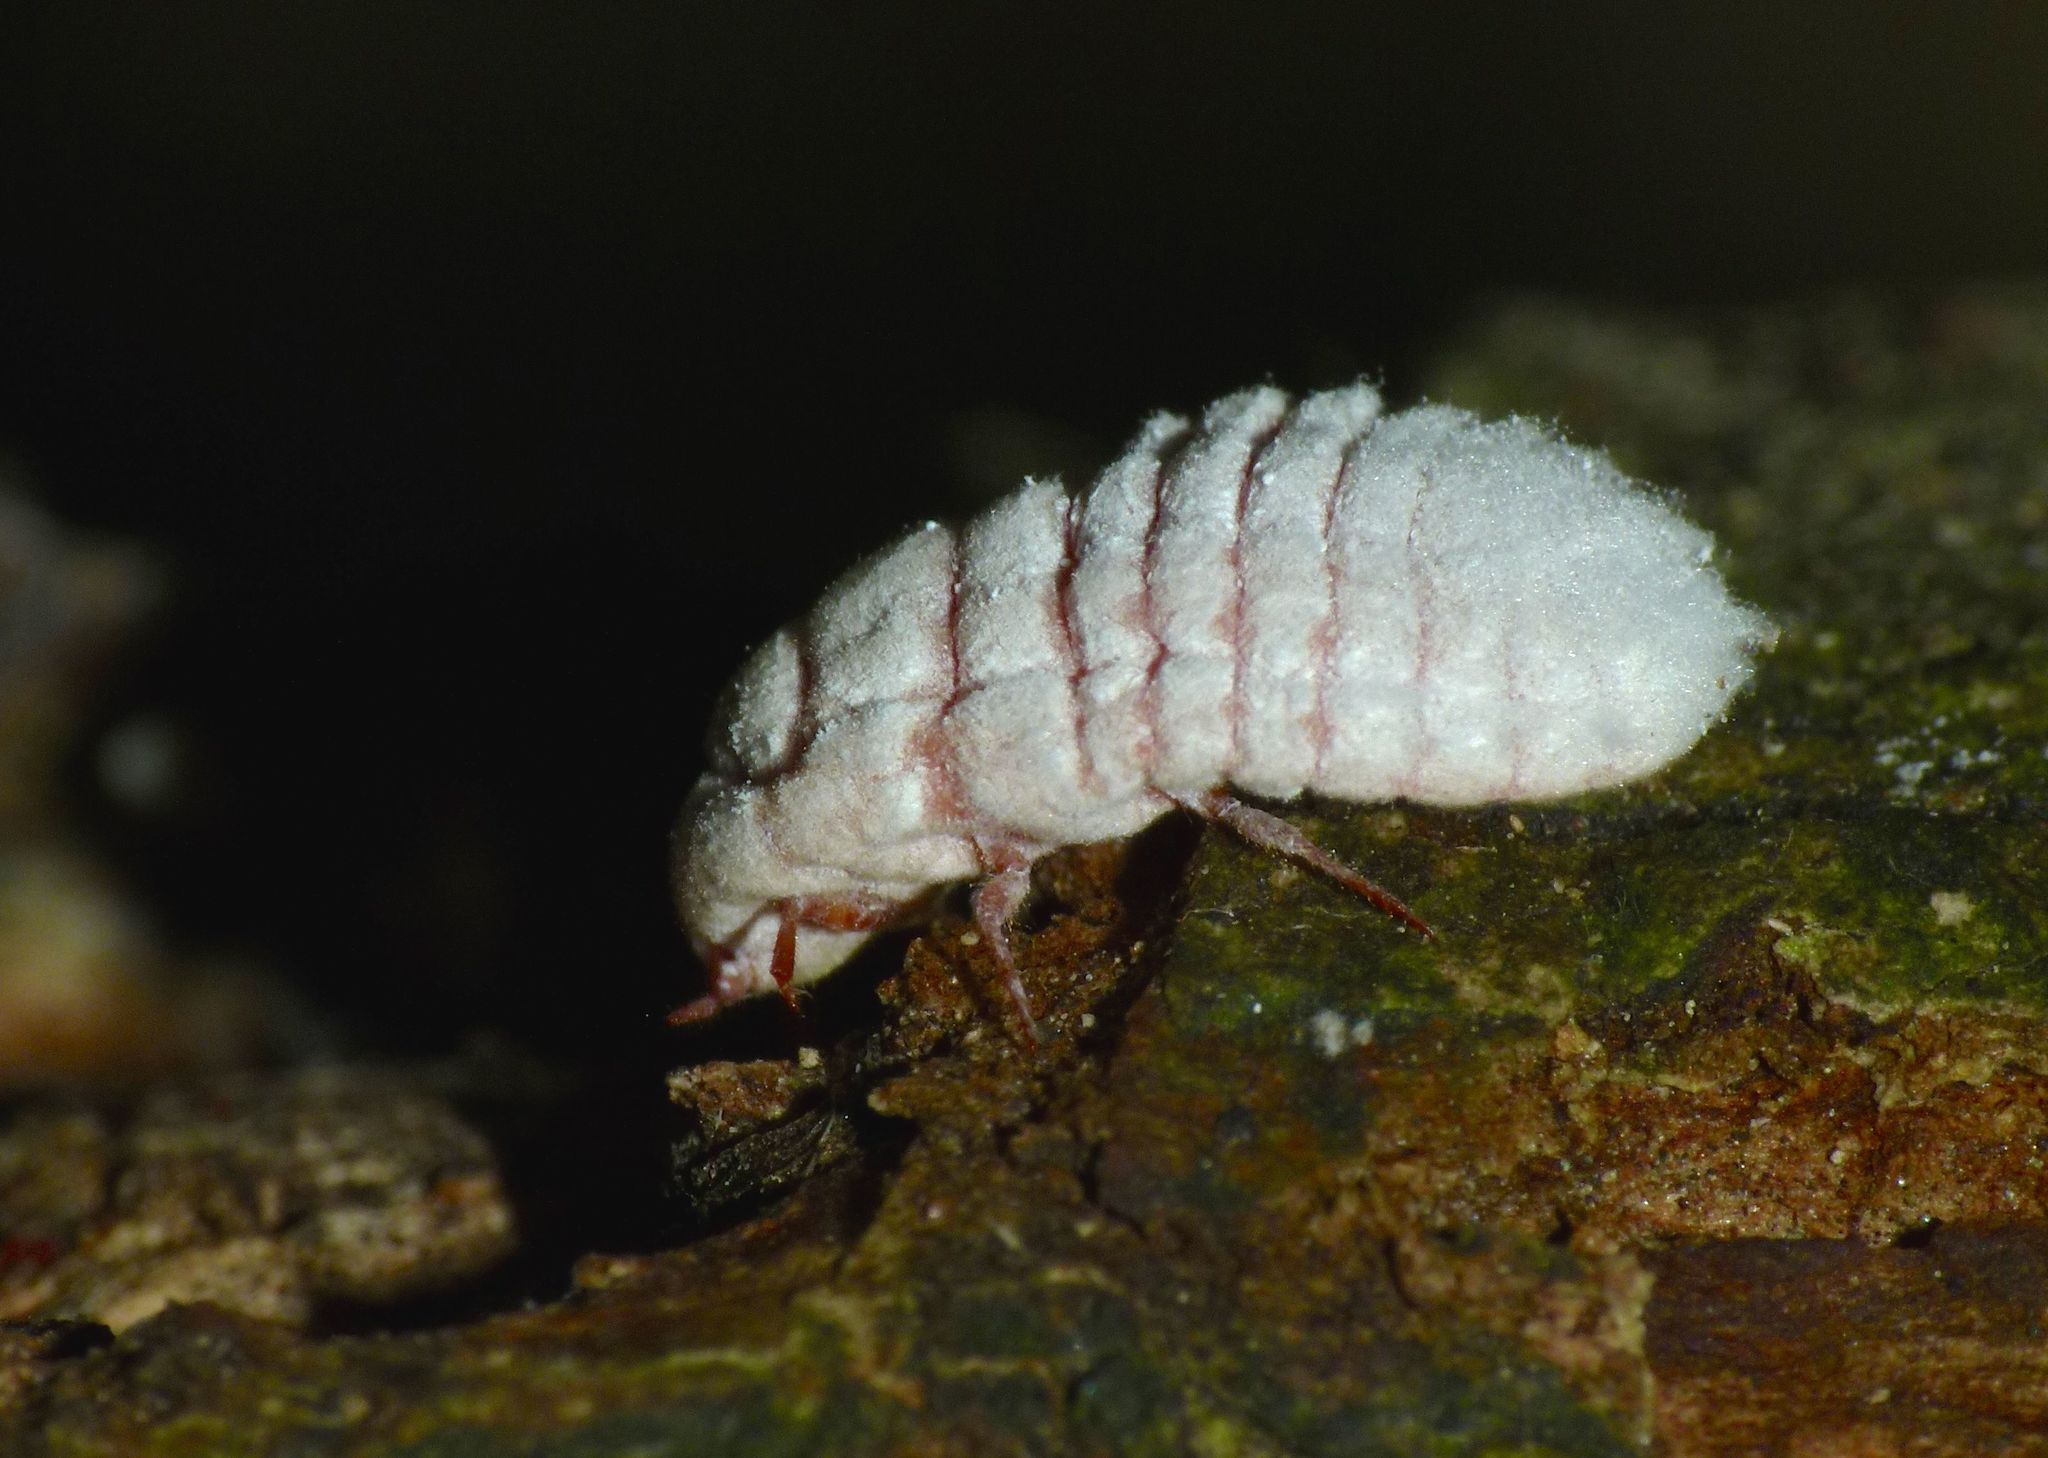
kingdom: Animalia
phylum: Arthropoda
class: Insecta
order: Hemiptera
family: Margarodidae
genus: Coelostomidia
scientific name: Coelostomidia zealandica
